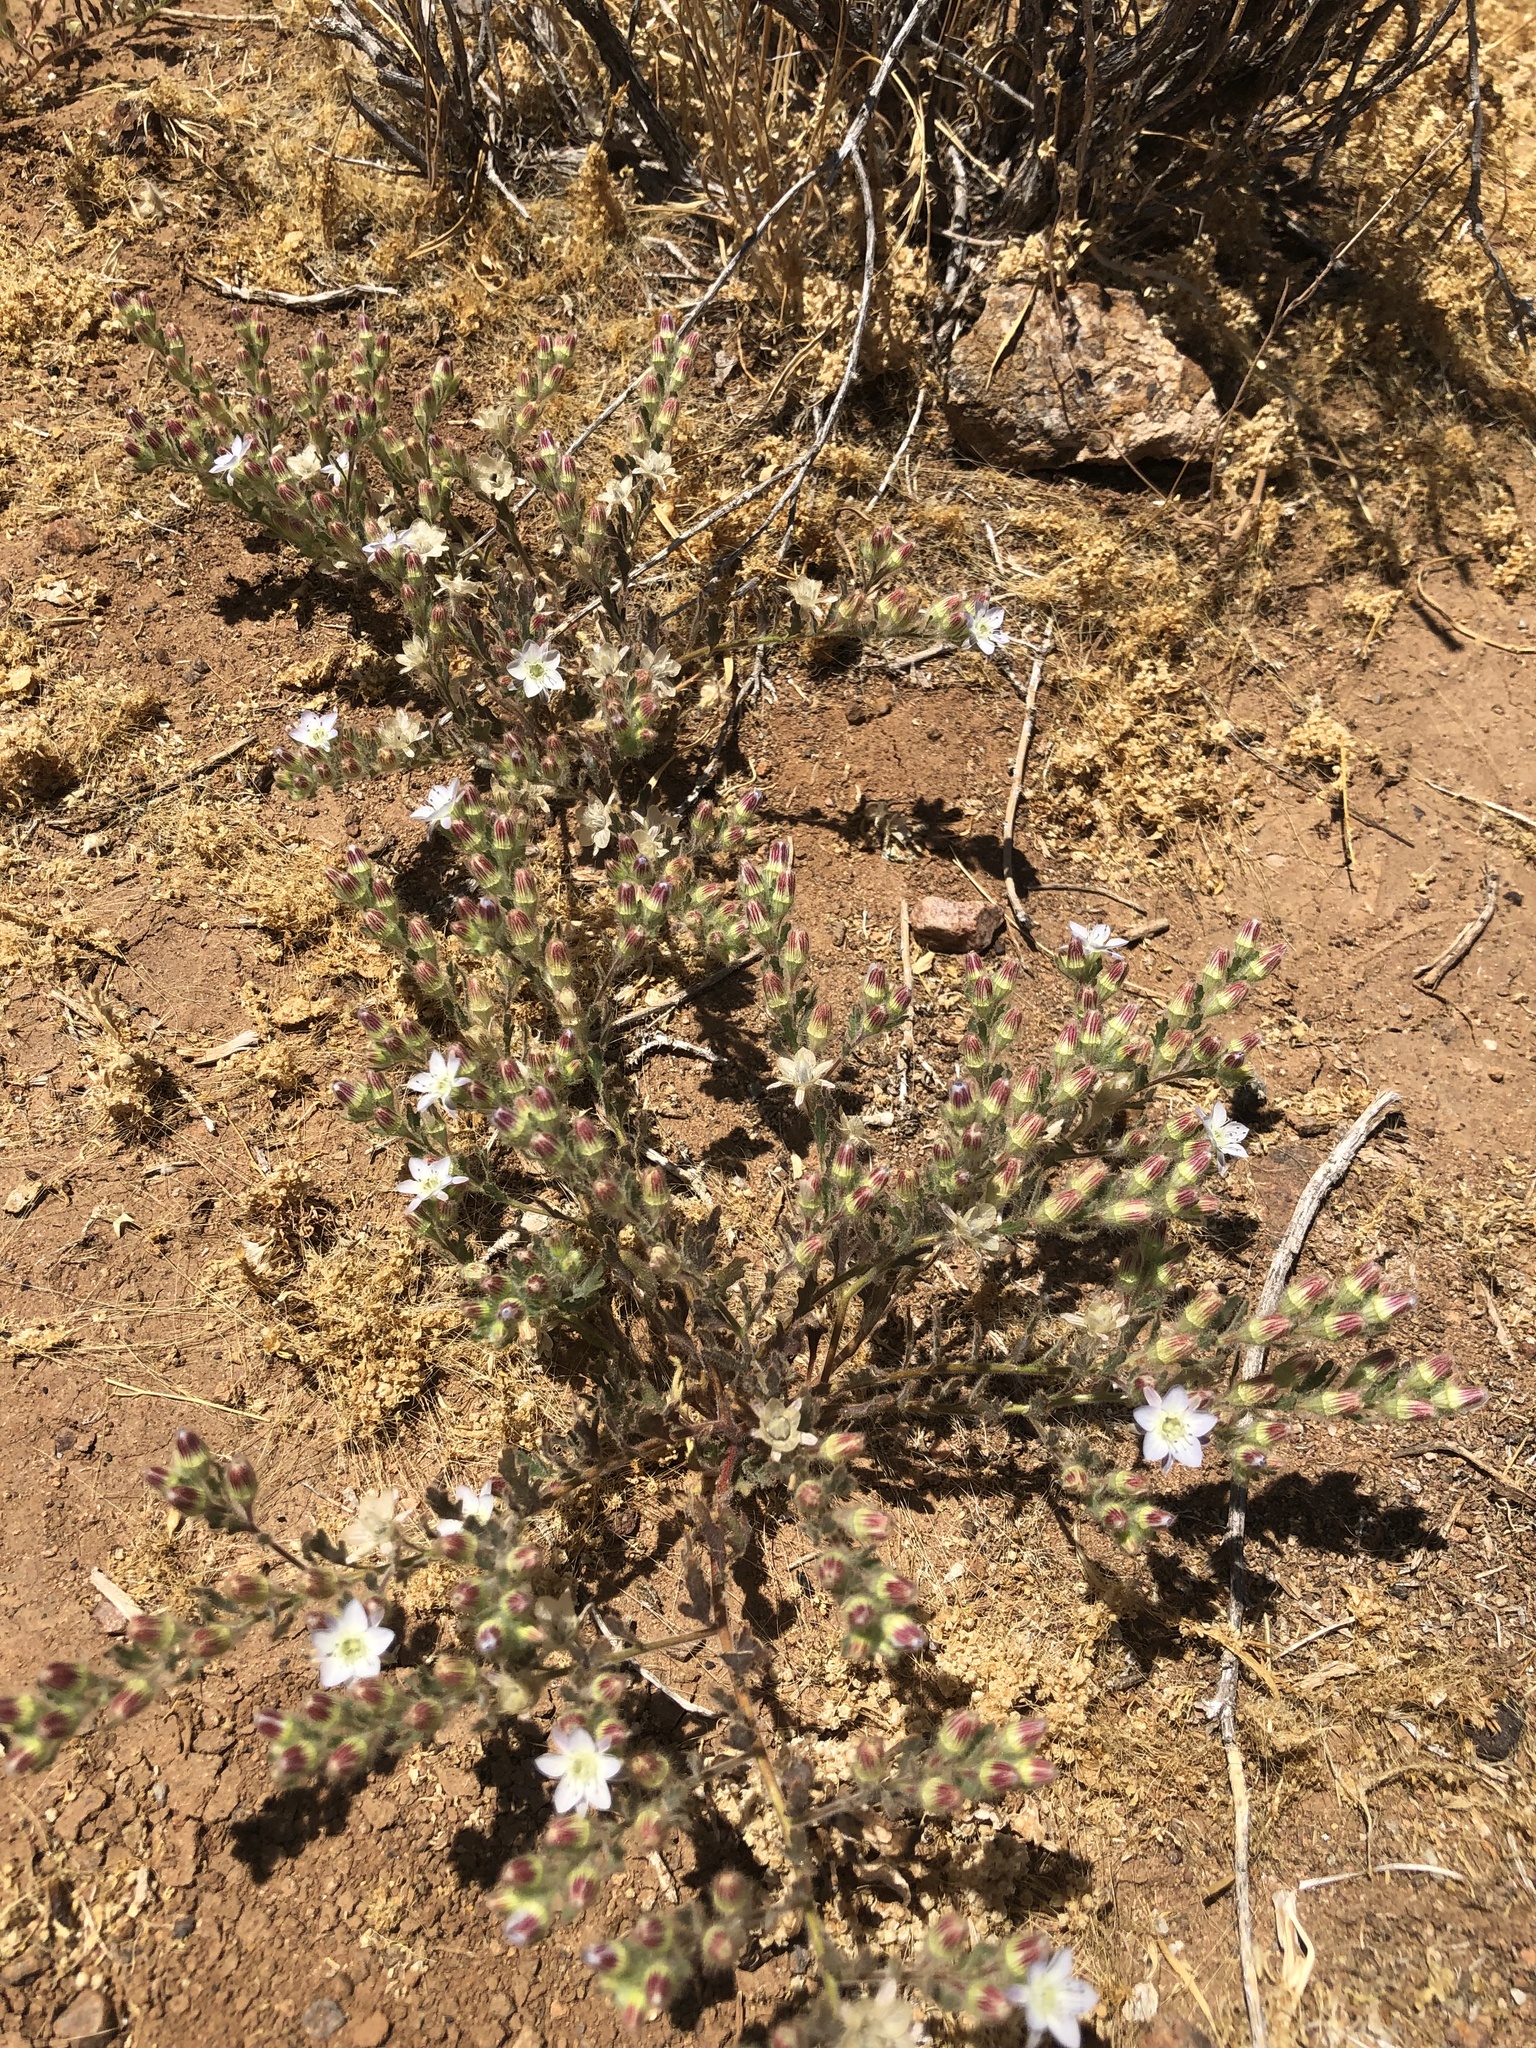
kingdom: Plantae
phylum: Tracheophyta
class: Magnoliopsida
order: Malpighiales
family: Malesherbiaceae
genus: Malesherbia
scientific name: Malesherbia humilis
